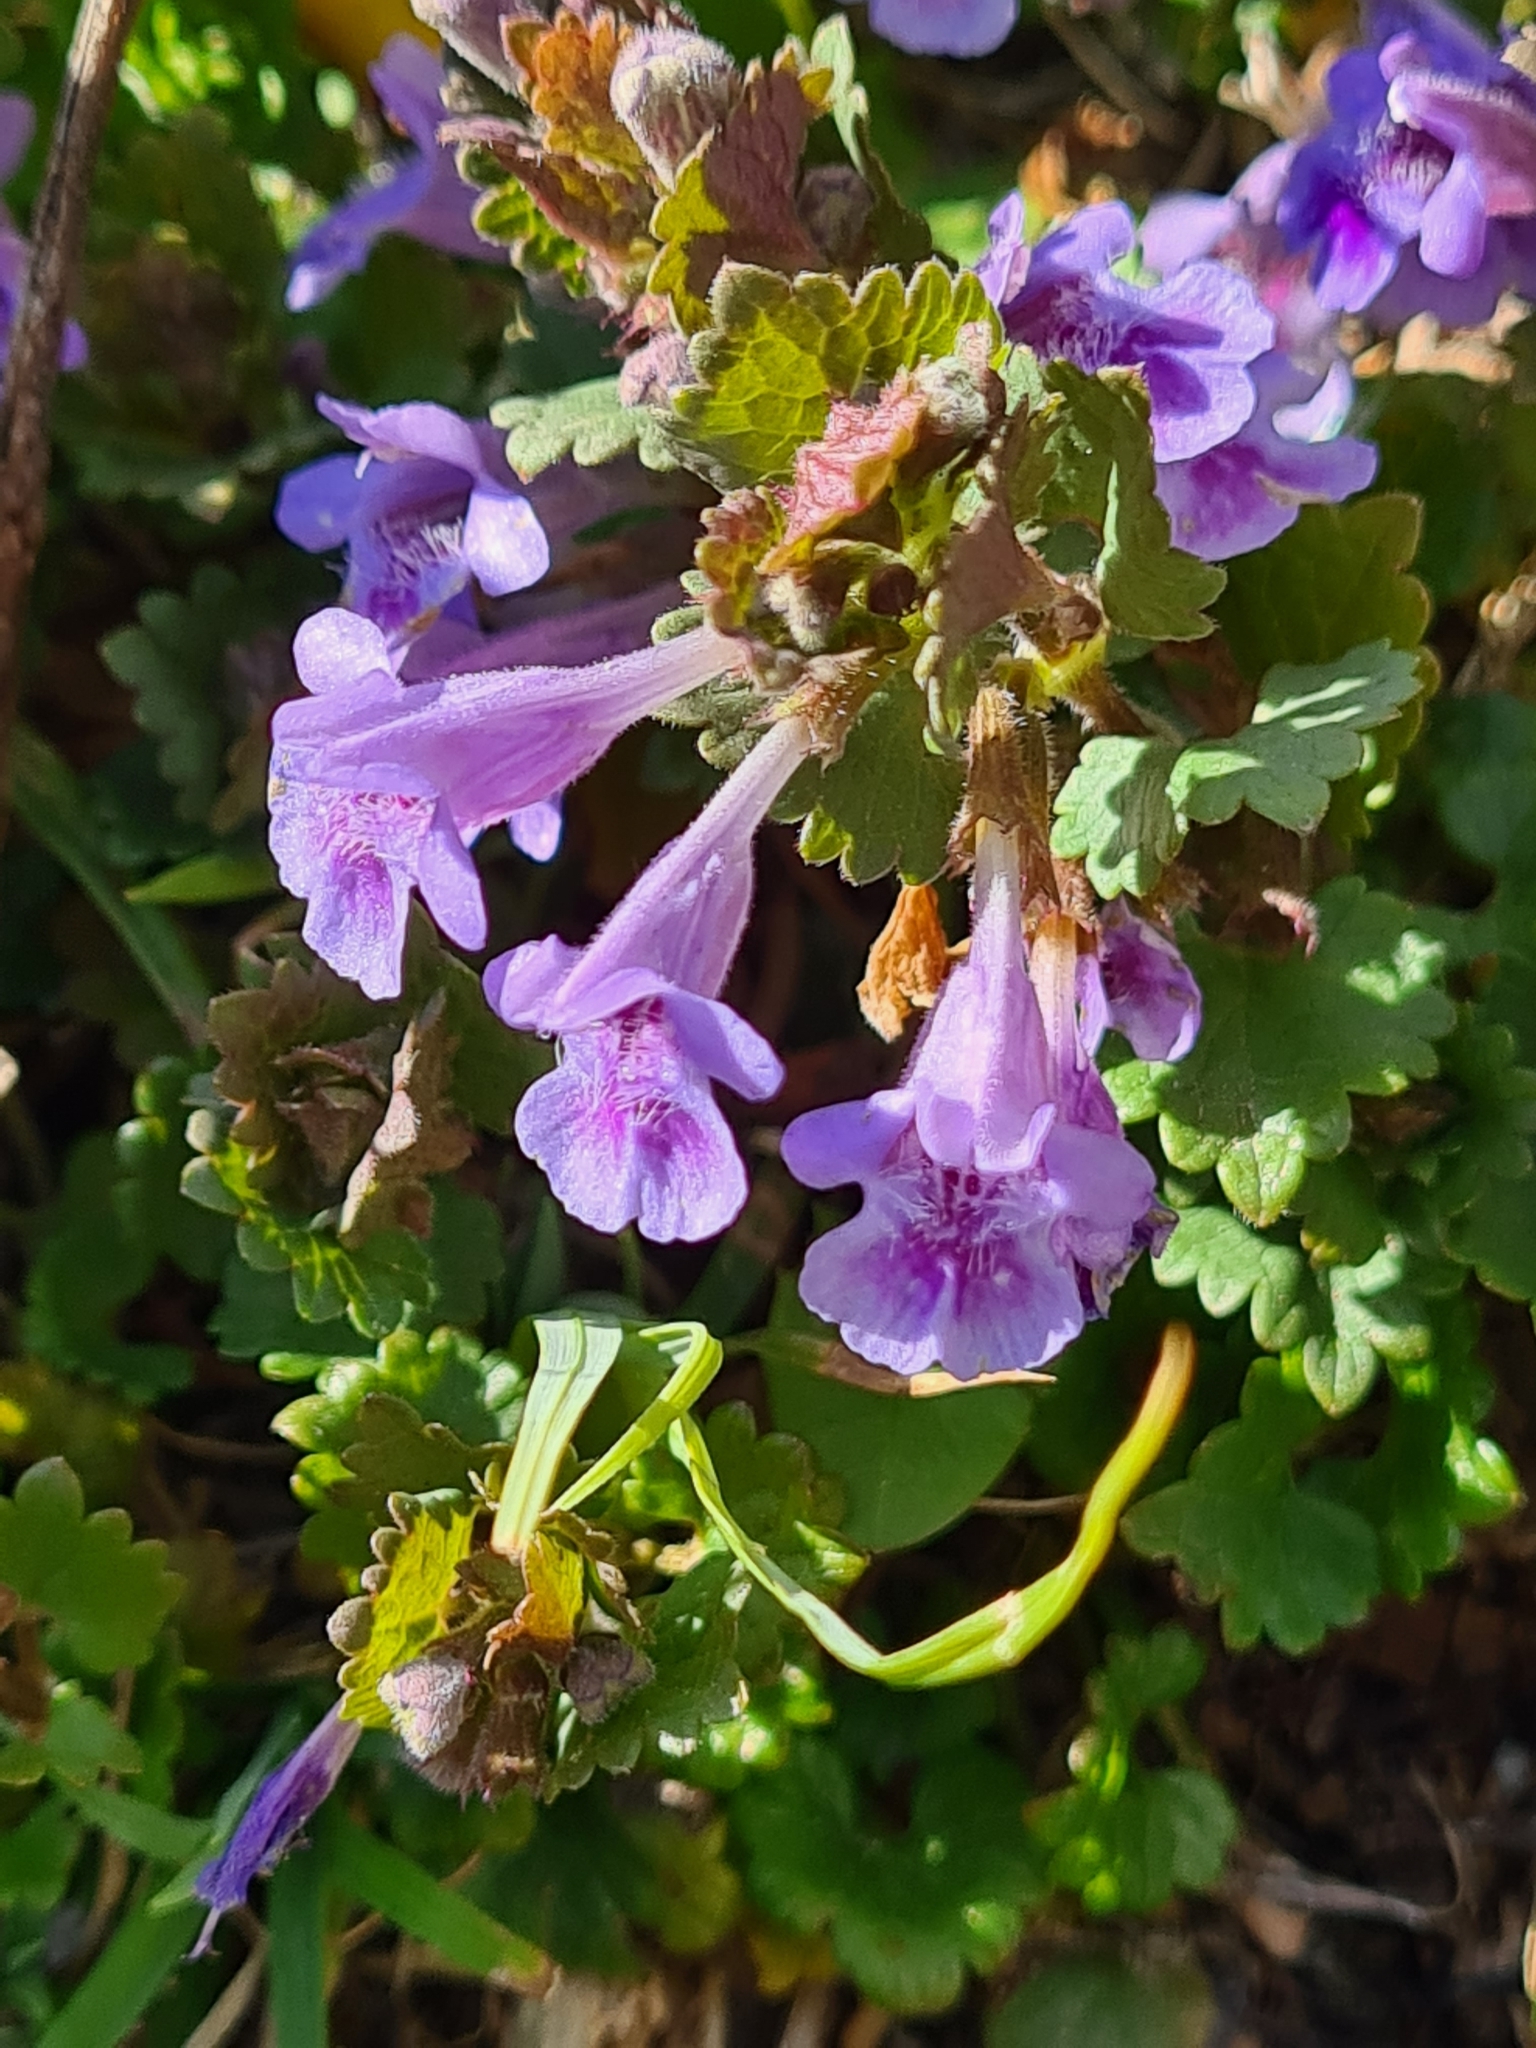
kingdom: Plantae
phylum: Tracheophyta
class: Magnoliopsida
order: Lamiales
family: Lamiaceae
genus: Glechoma
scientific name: Glechoma hederacea
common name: Ground ivy
